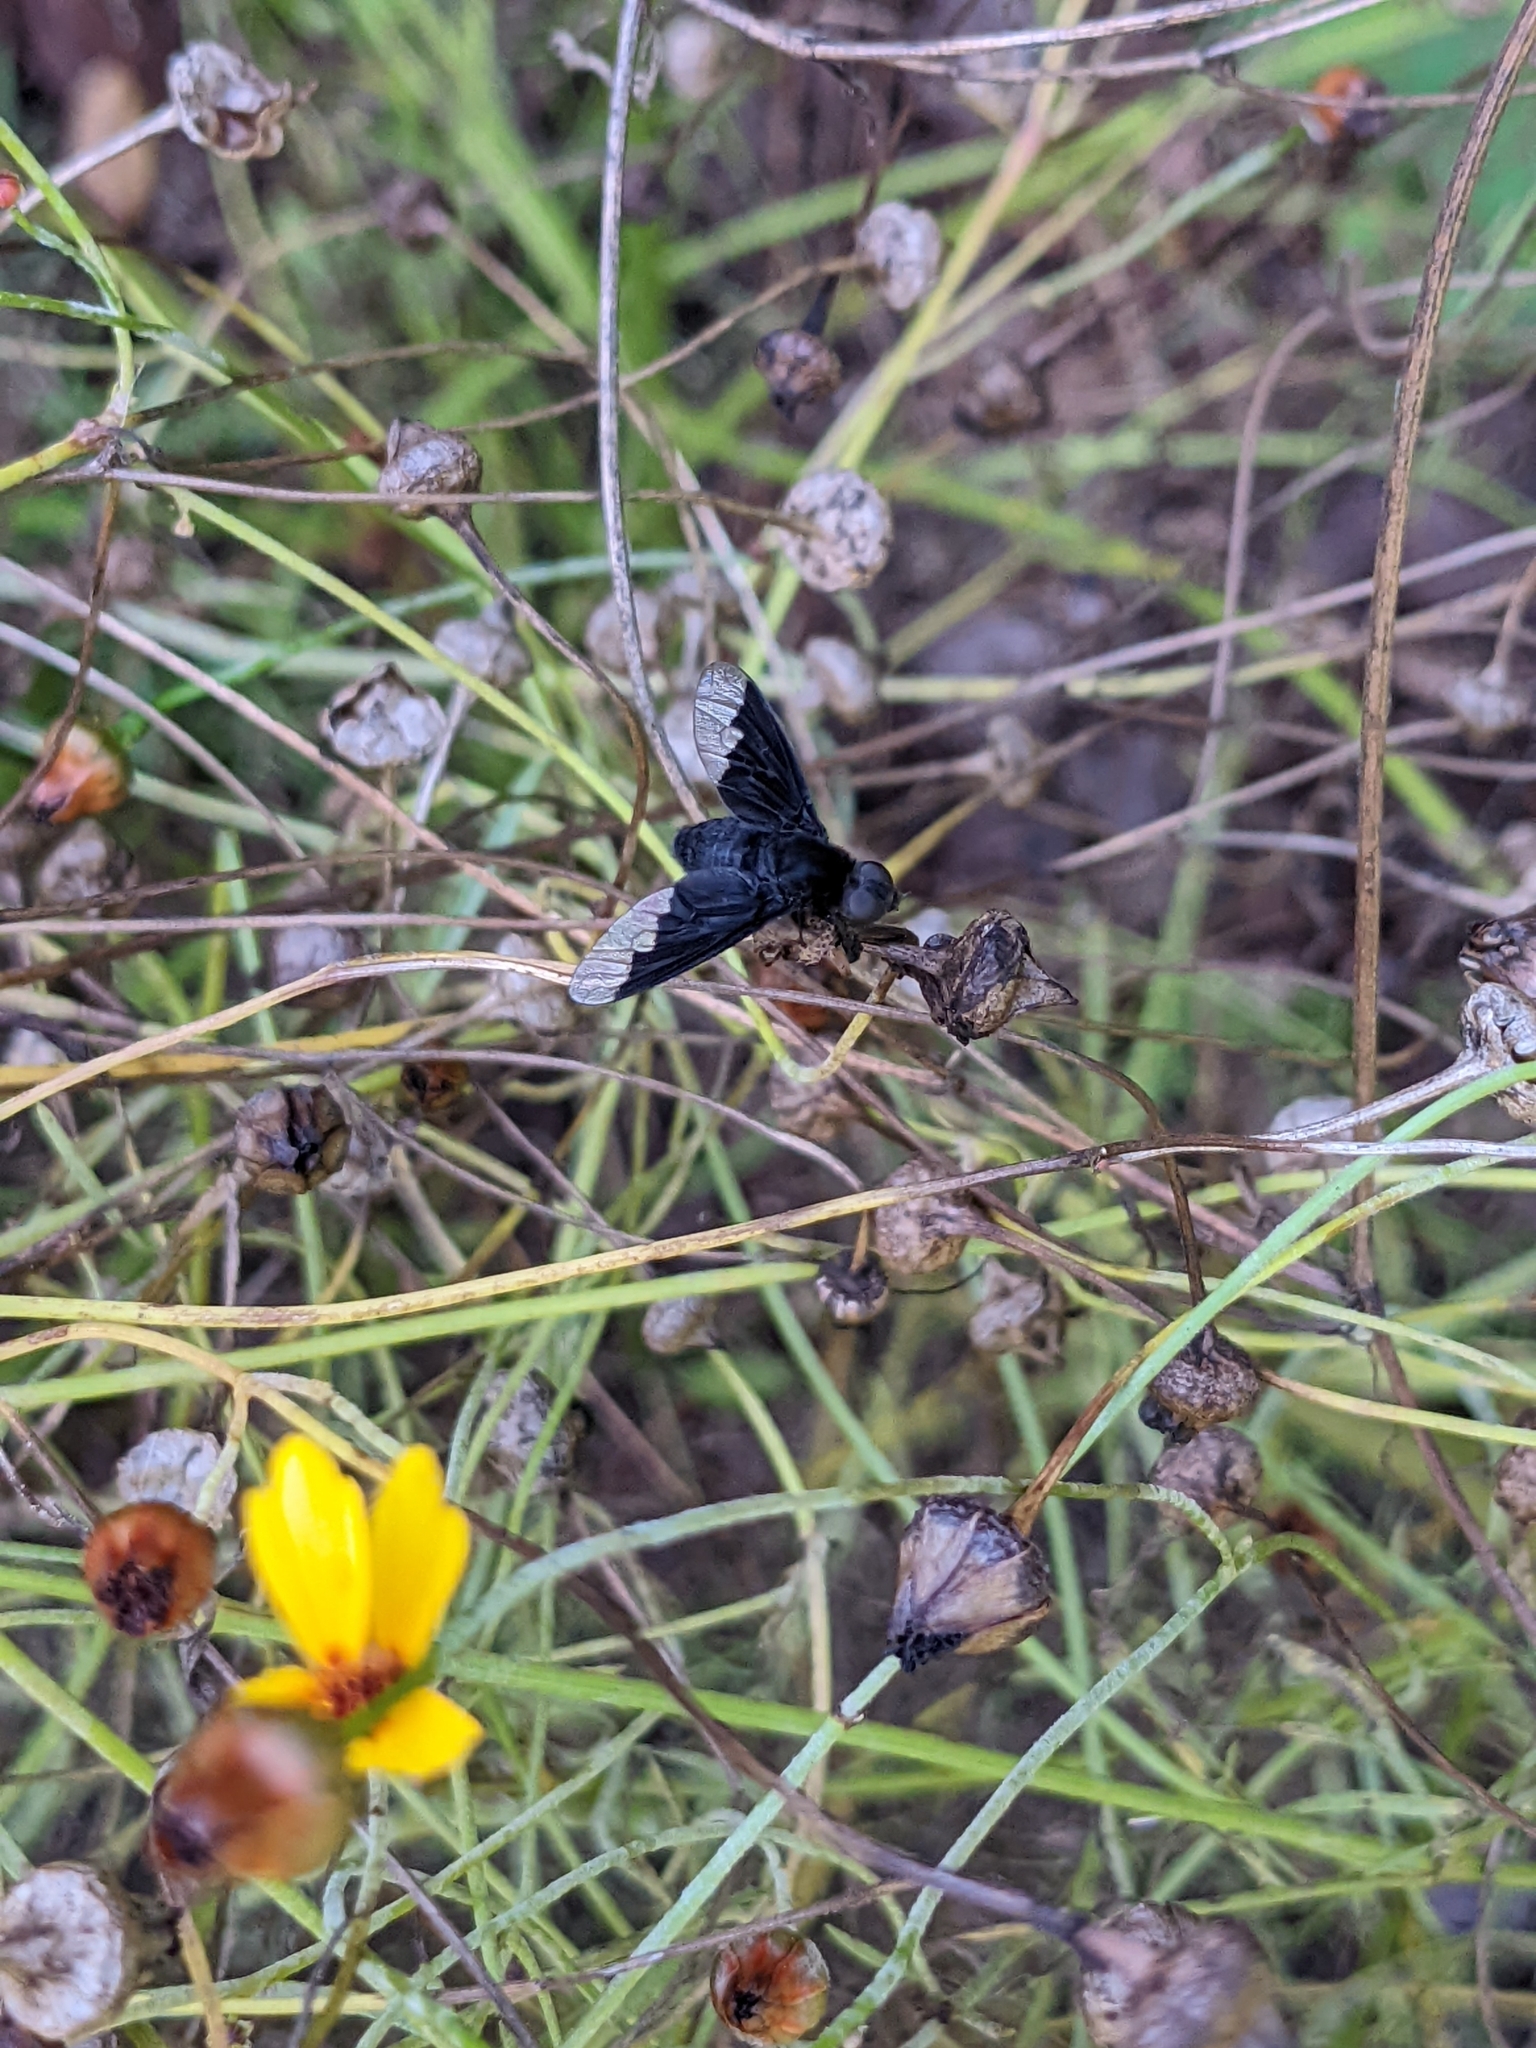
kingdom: Animalia
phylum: Arthropoda
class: Insecta
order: Diptera
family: Bombyliidae
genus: Anthrax
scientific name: Anthrax analis
